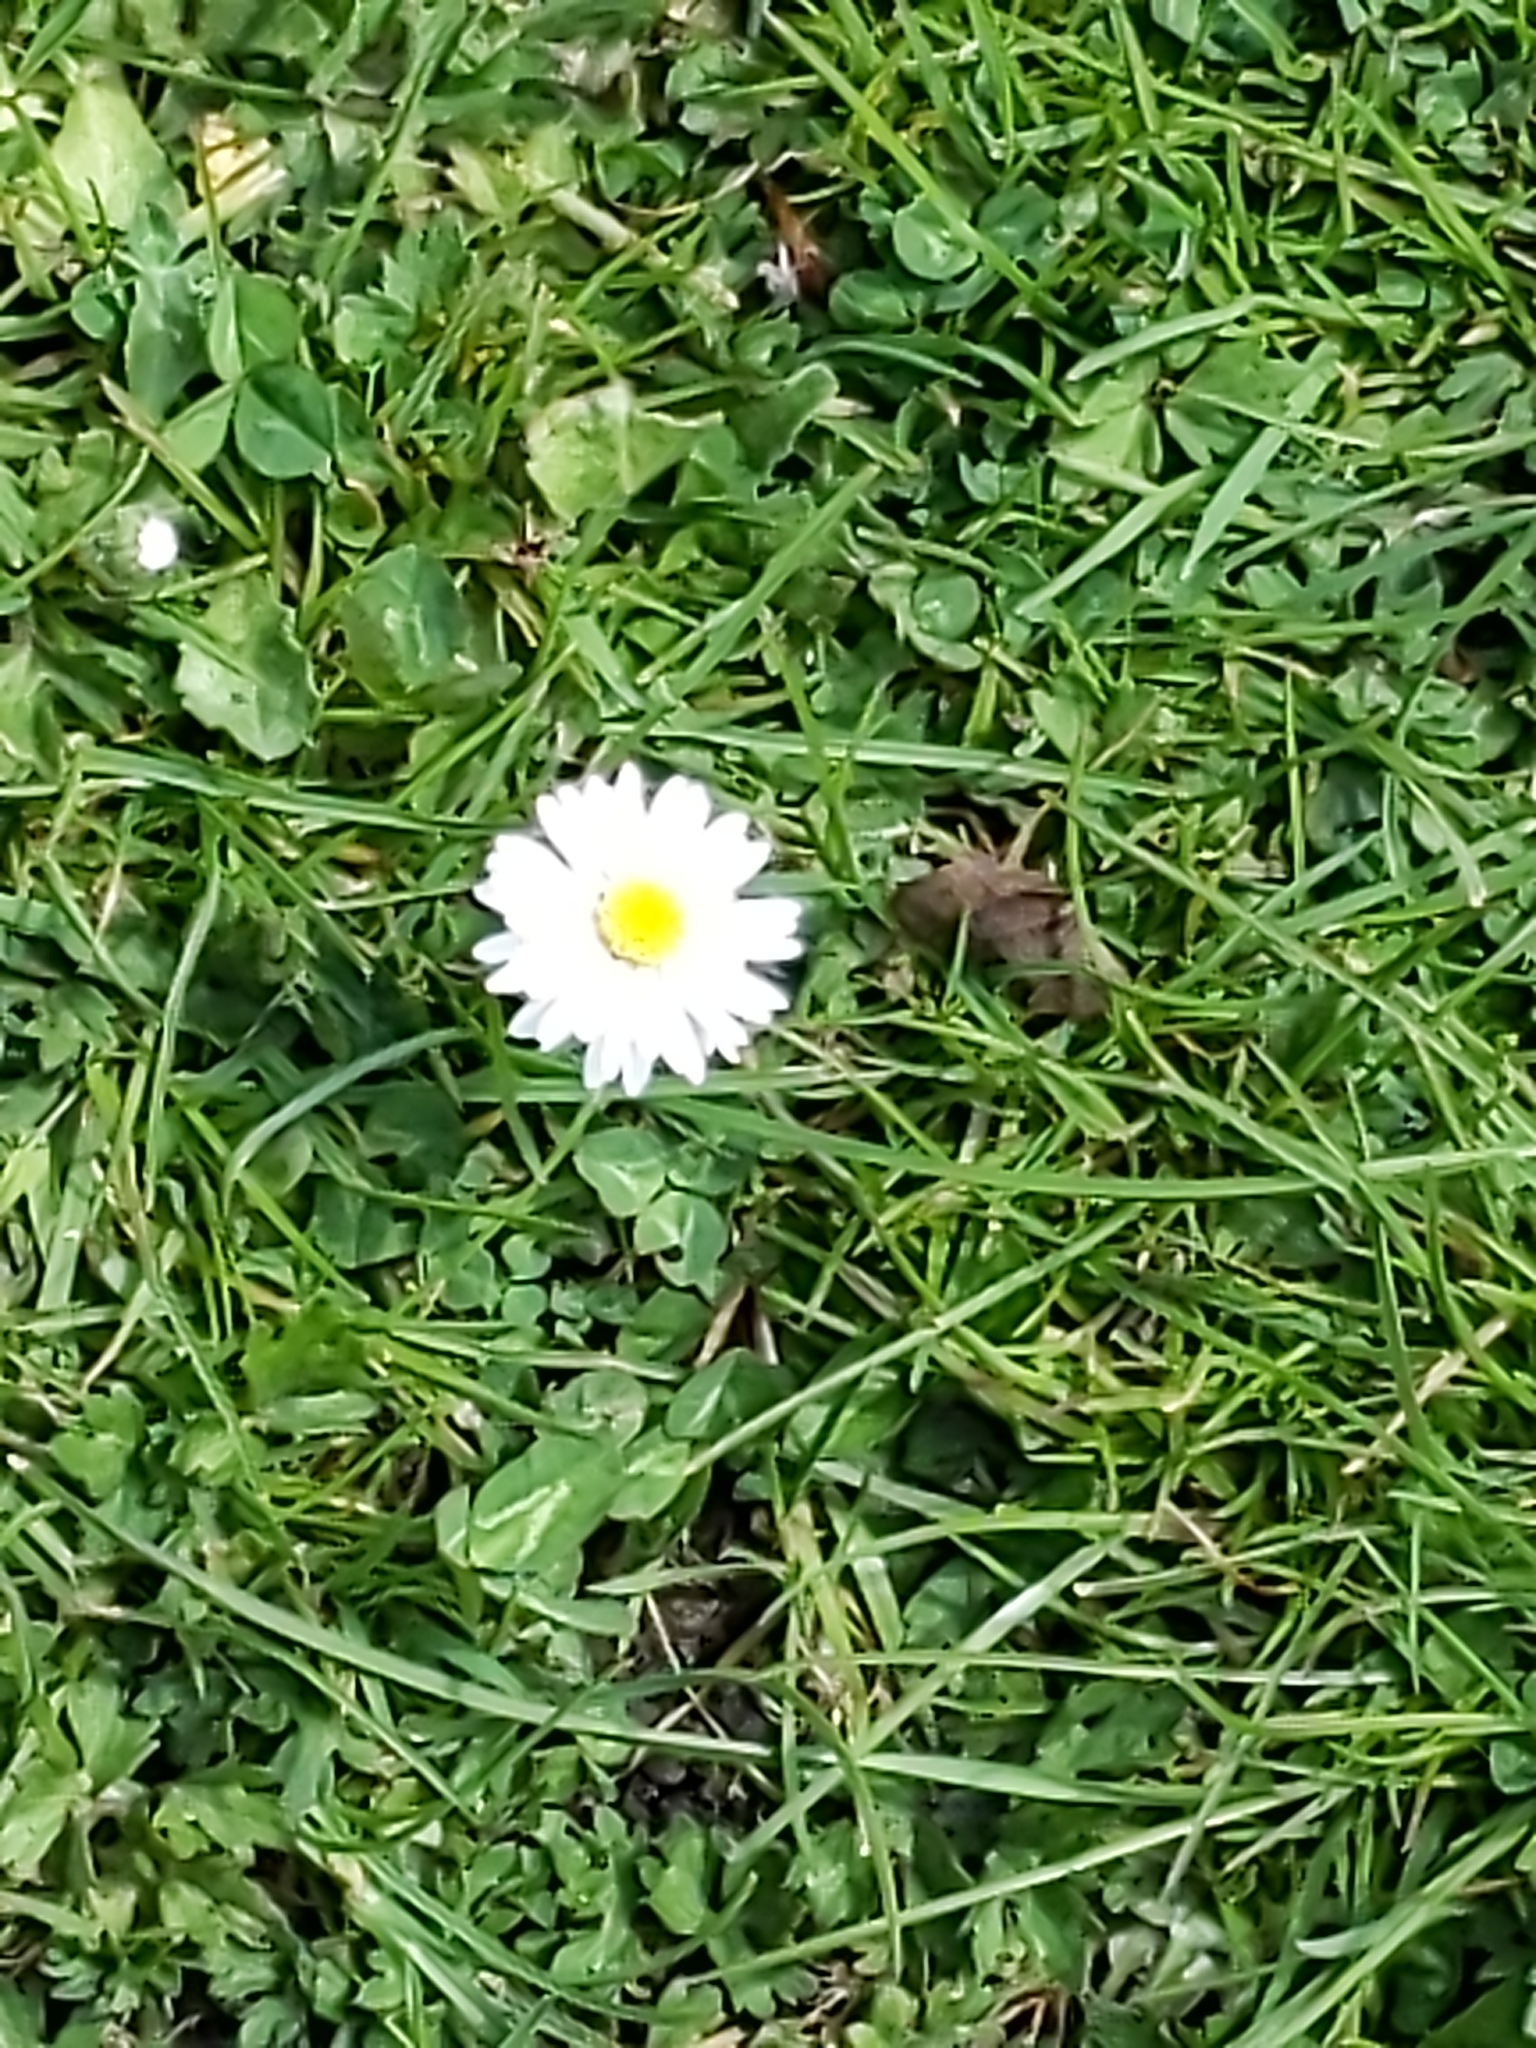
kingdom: Plantae
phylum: Tracheophyta
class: Magnoliopsida
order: Asterales
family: Asteraceae
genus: Bellis
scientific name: Bellis perennis
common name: Lawndaisy
